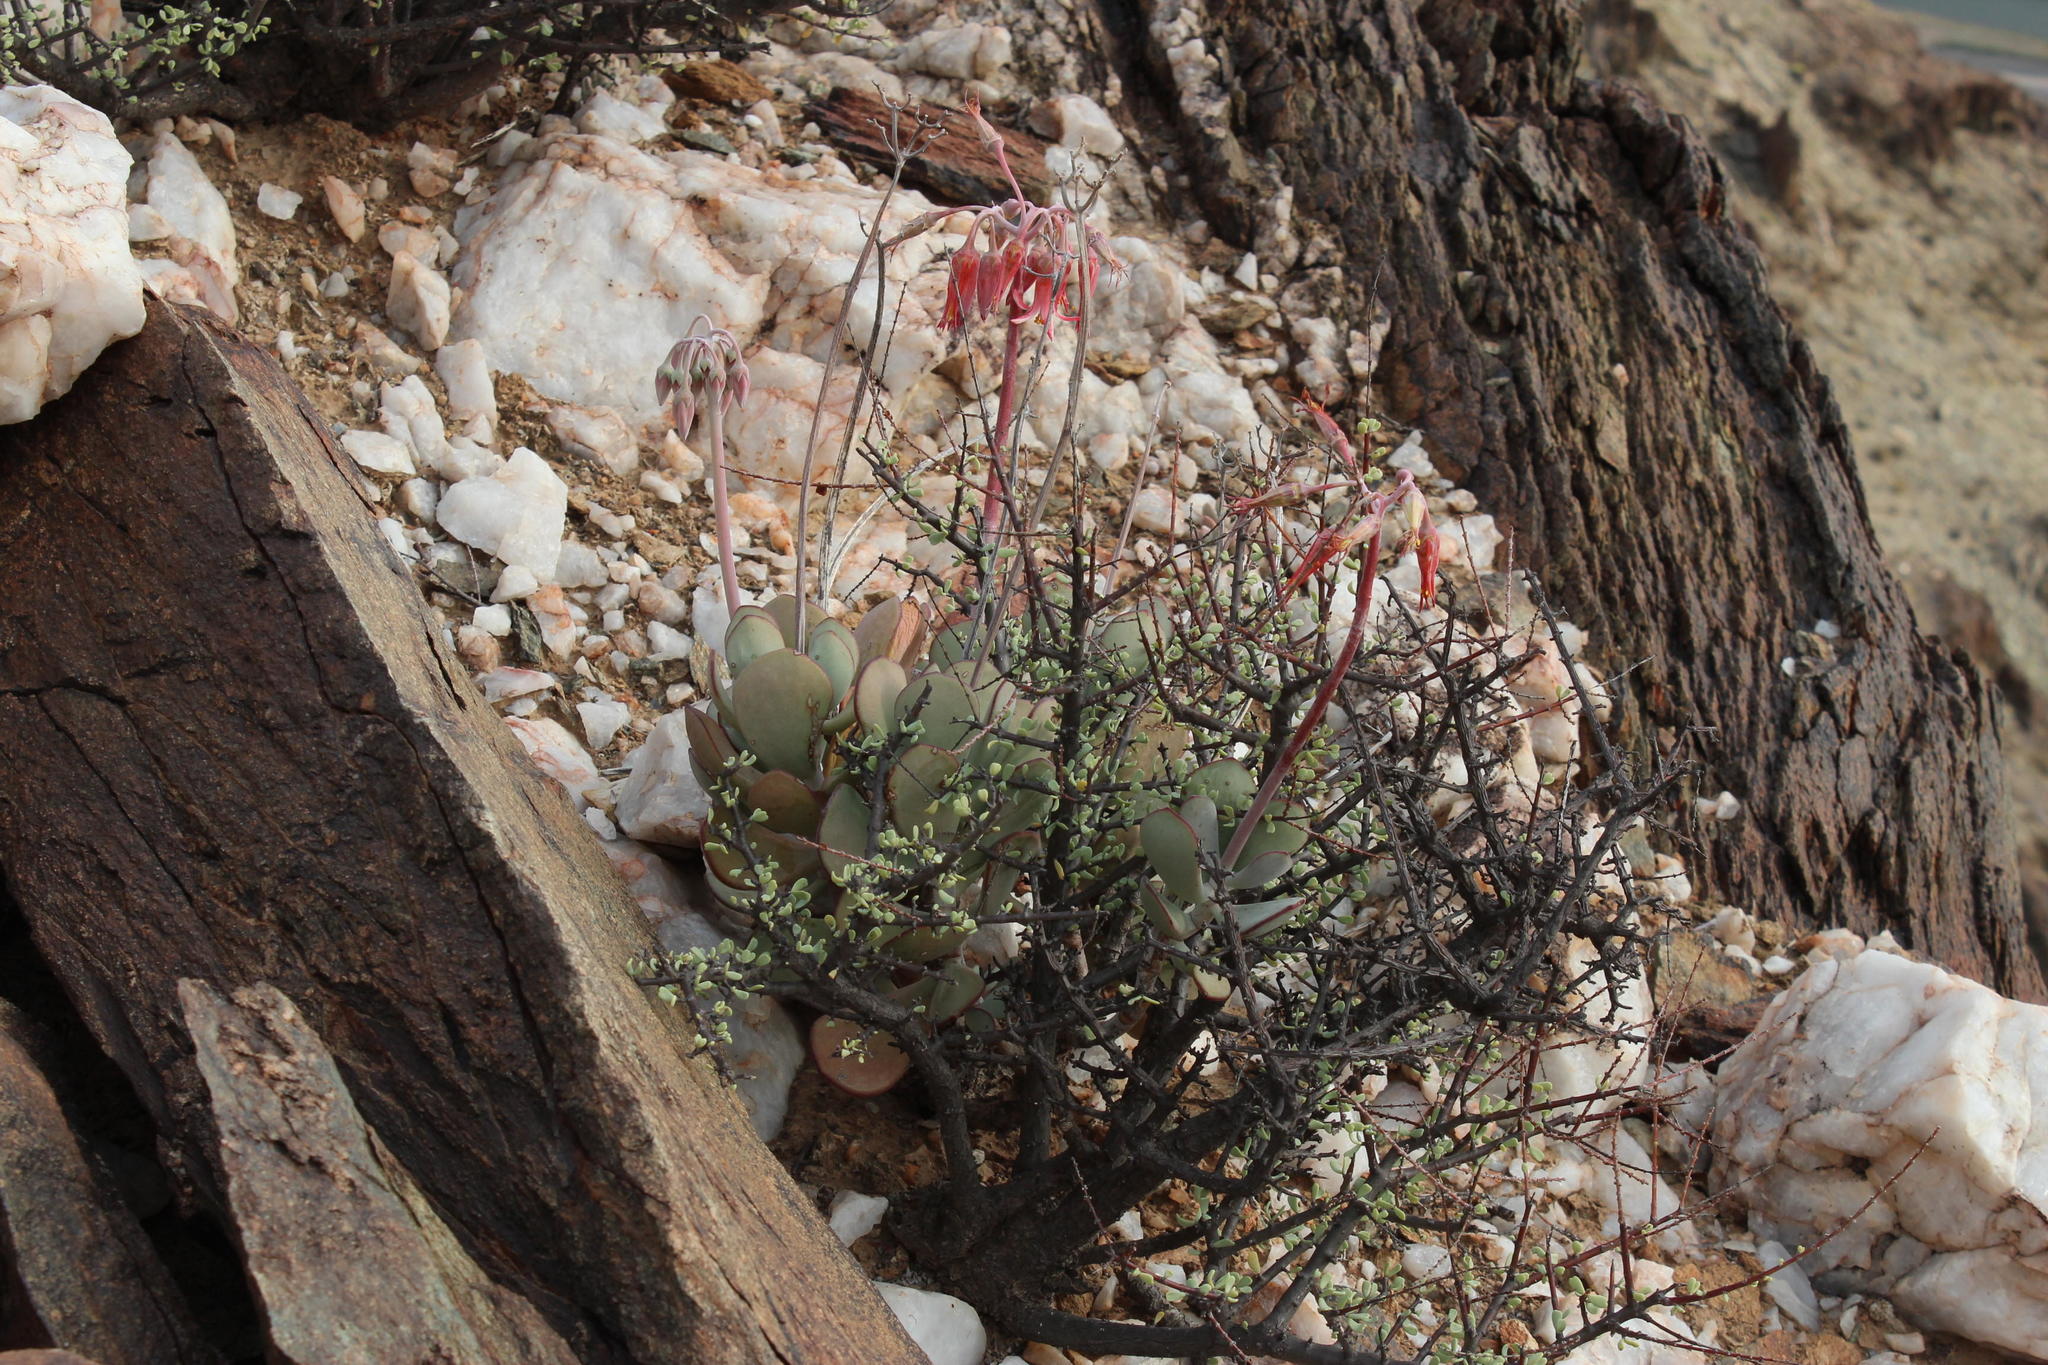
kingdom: Plantae
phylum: Tracheophyta
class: Magnoliopsida
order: Saxifragales
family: Crassulaceae
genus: Cotyledon
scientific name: Cotyledon orbiculata
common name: Pig's ear
